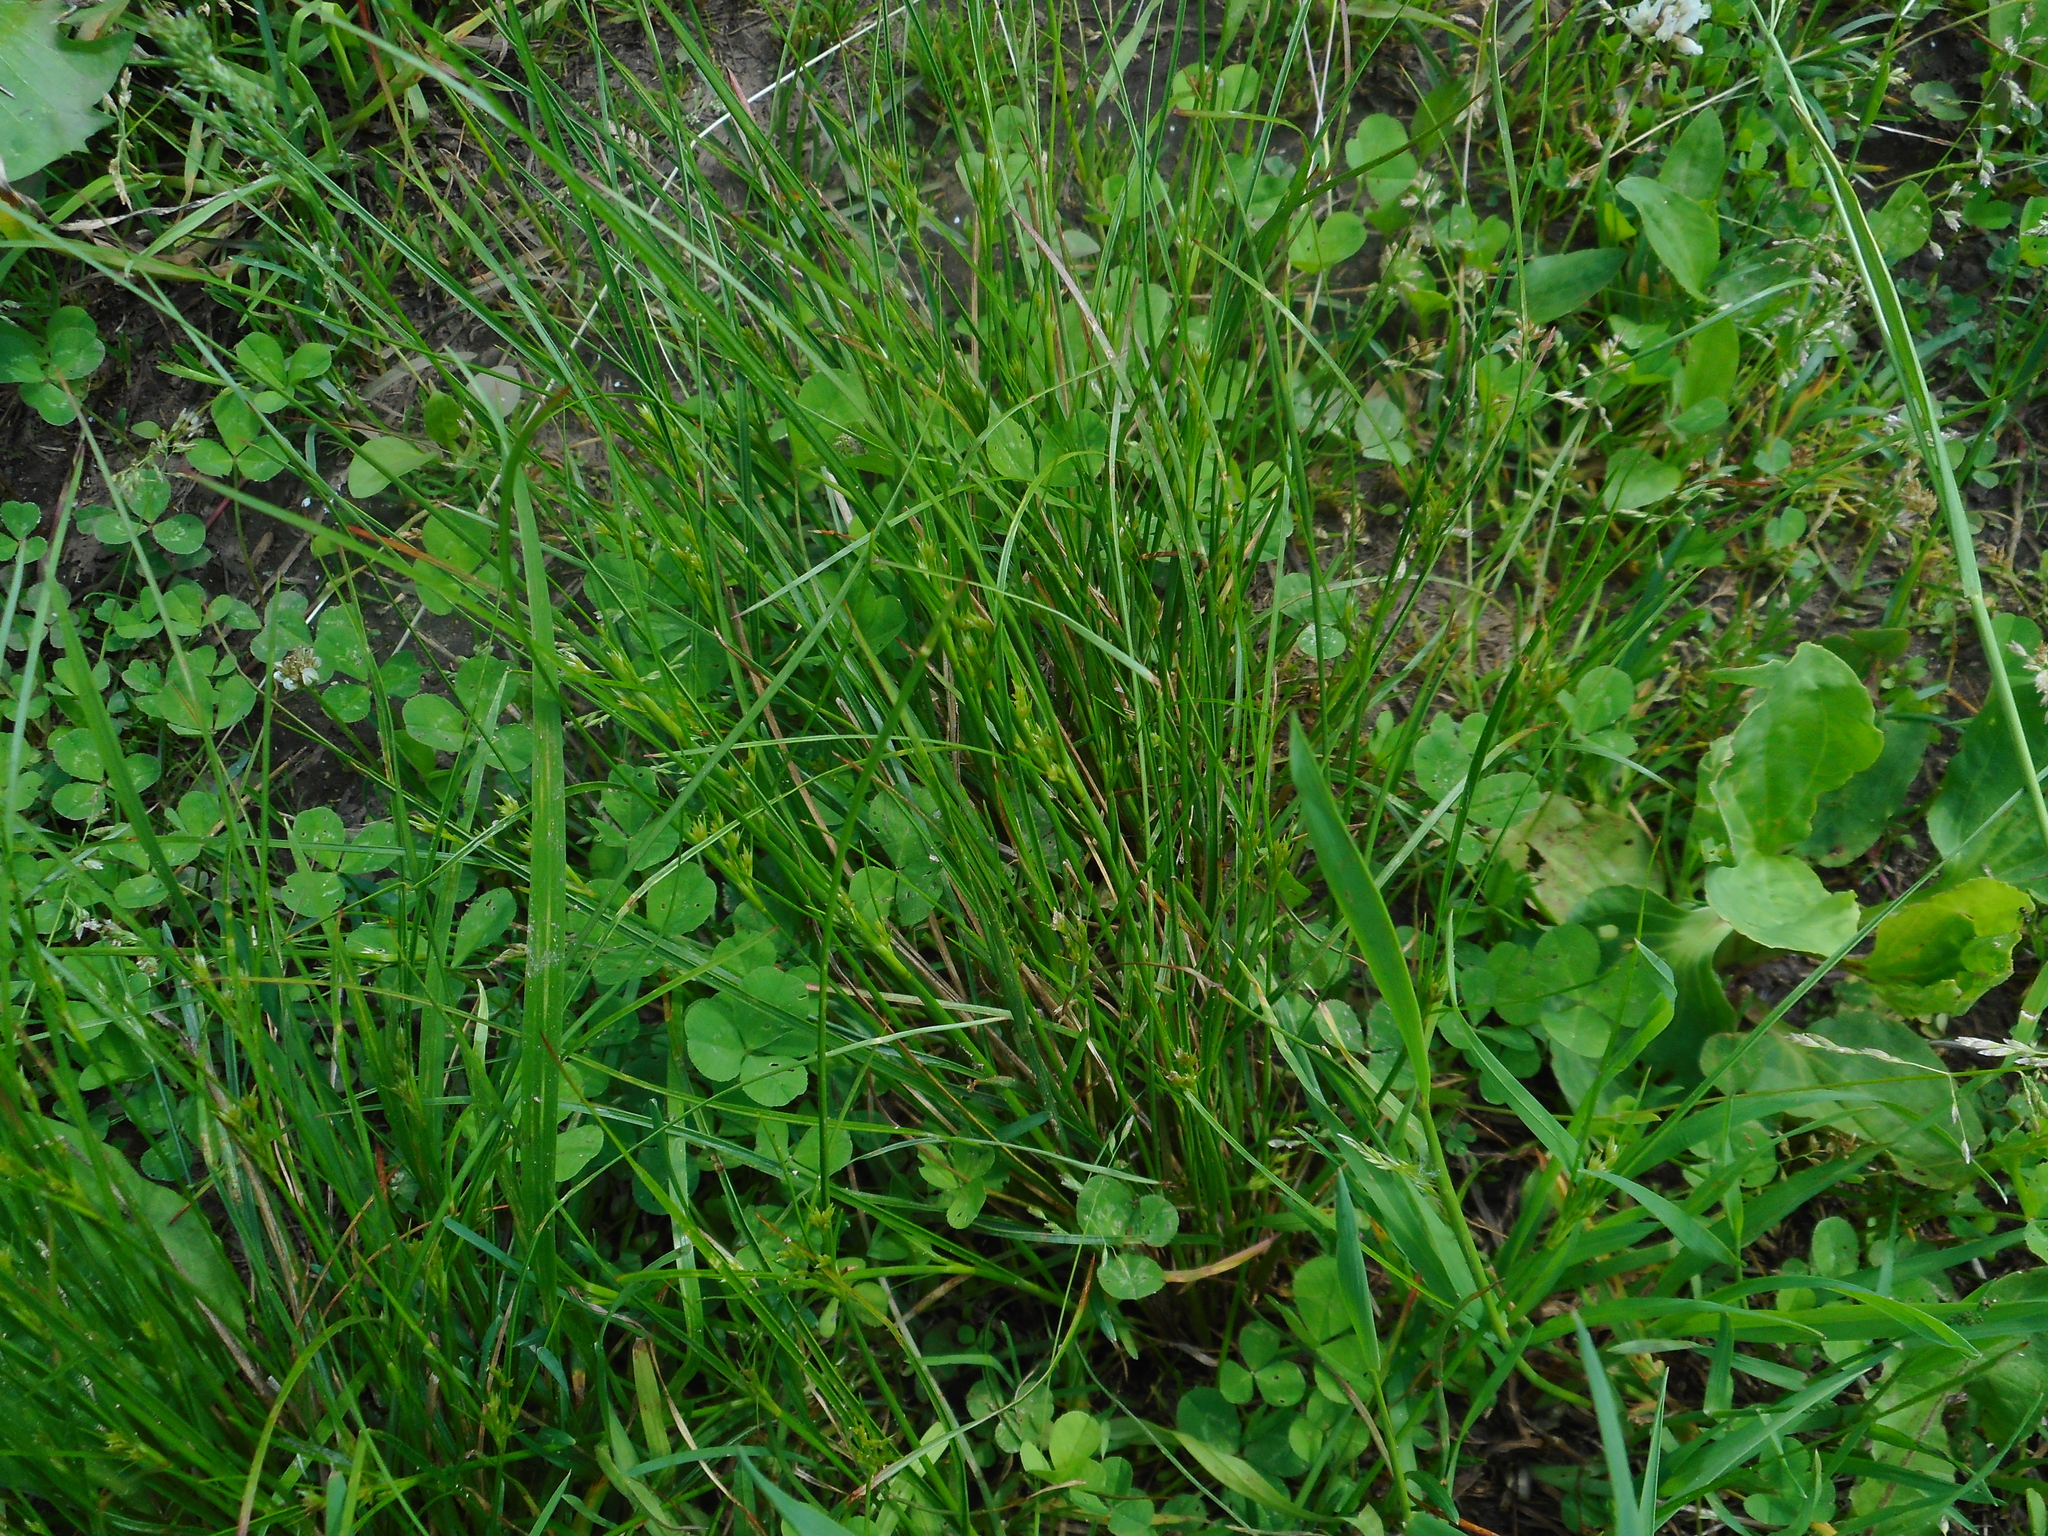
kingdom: Plantae
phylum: Tracheophyta
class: Liliopsida
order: Poales
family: Juncaceae
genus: Juncus
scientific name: Juncus compressus
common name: Round-fruited rush
